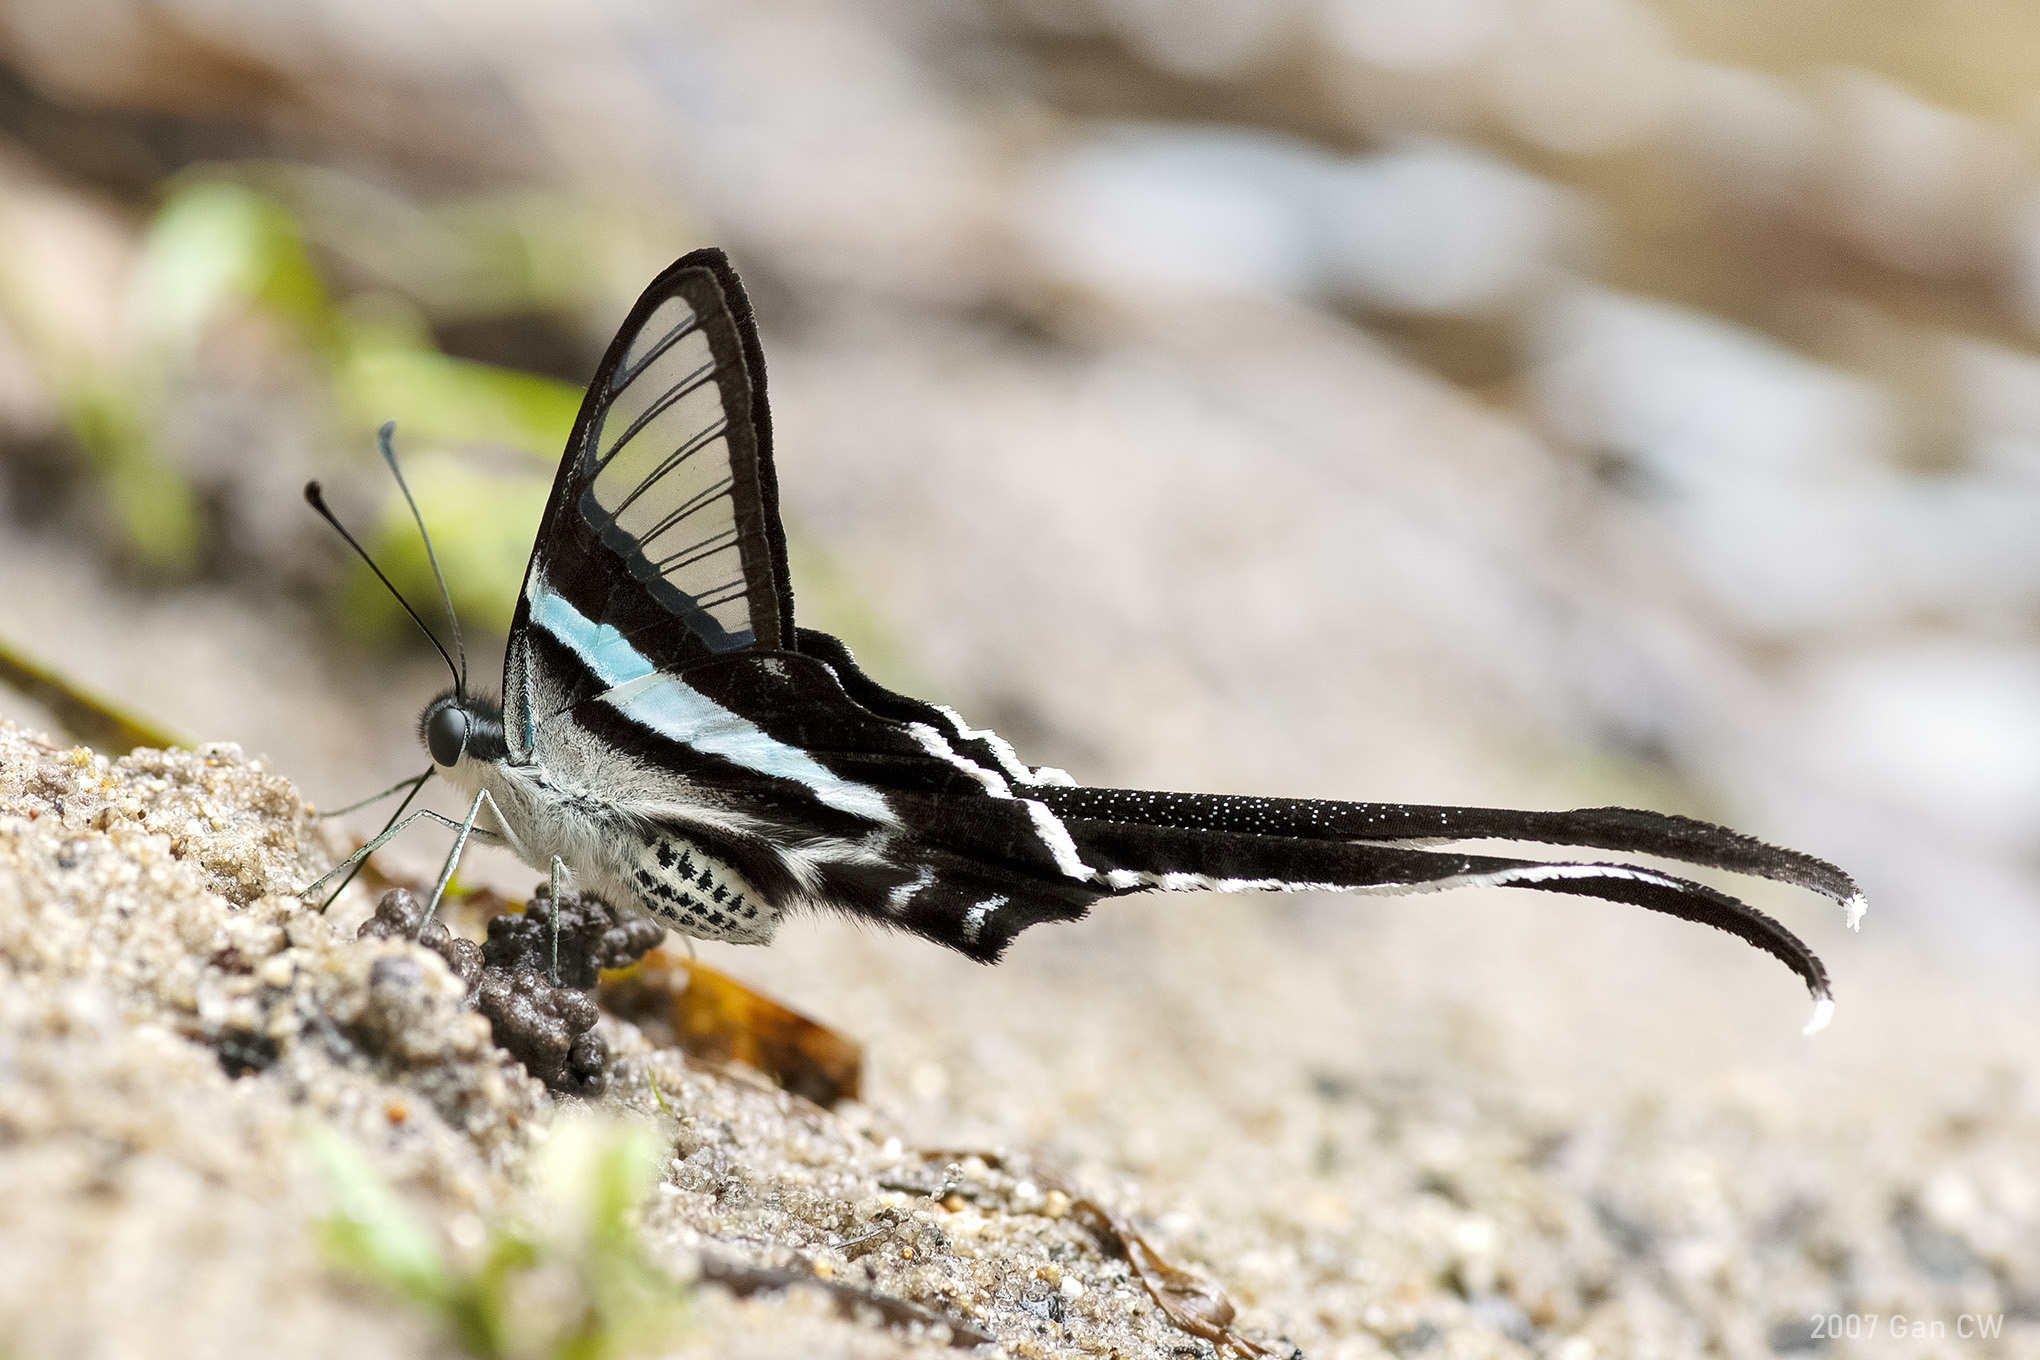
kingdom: Animalia
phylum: Arthropoda
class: Insecta
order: Lepidoptera
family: Papilionidae
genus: Lamproptera
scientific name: Lamproptera meges
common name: Green dragontail
